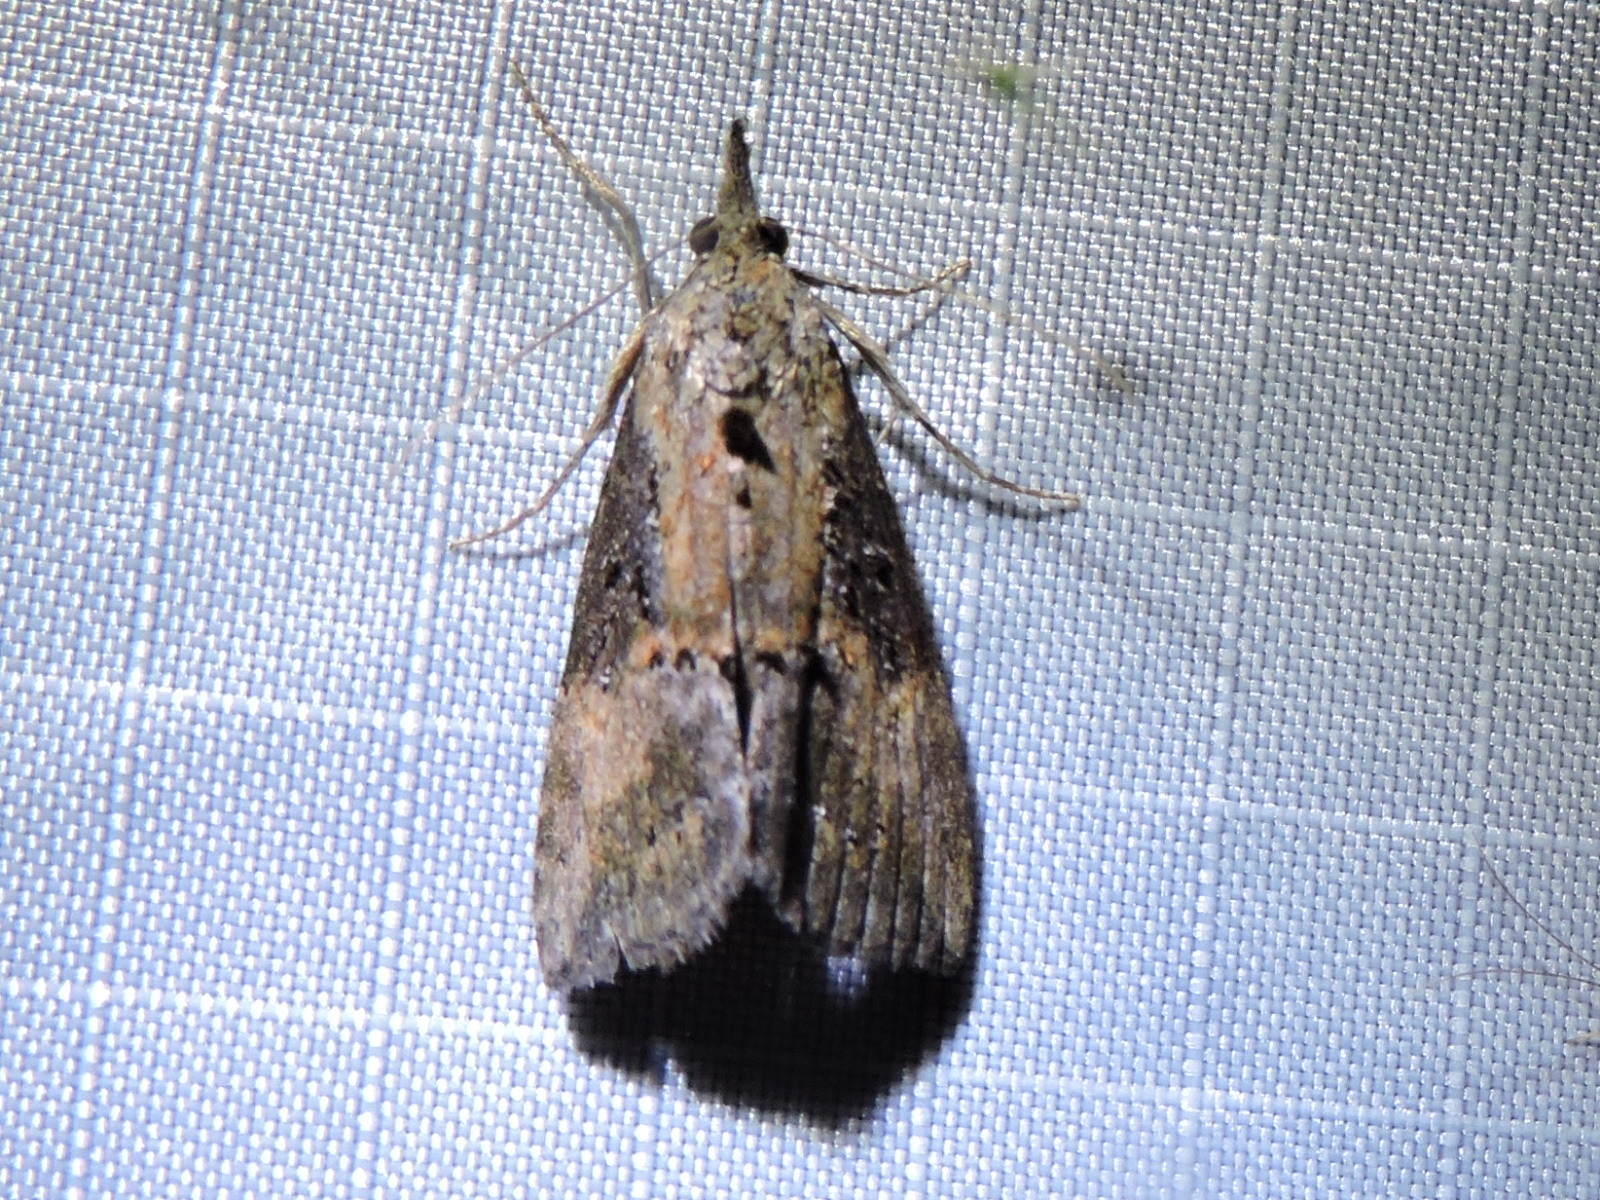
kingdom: Animalia
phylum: Arthropoda
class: Insecta
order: Lepidoptera
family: Erebidae
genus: Hypena
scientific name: Hypena scabra
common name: Green cloverworm
